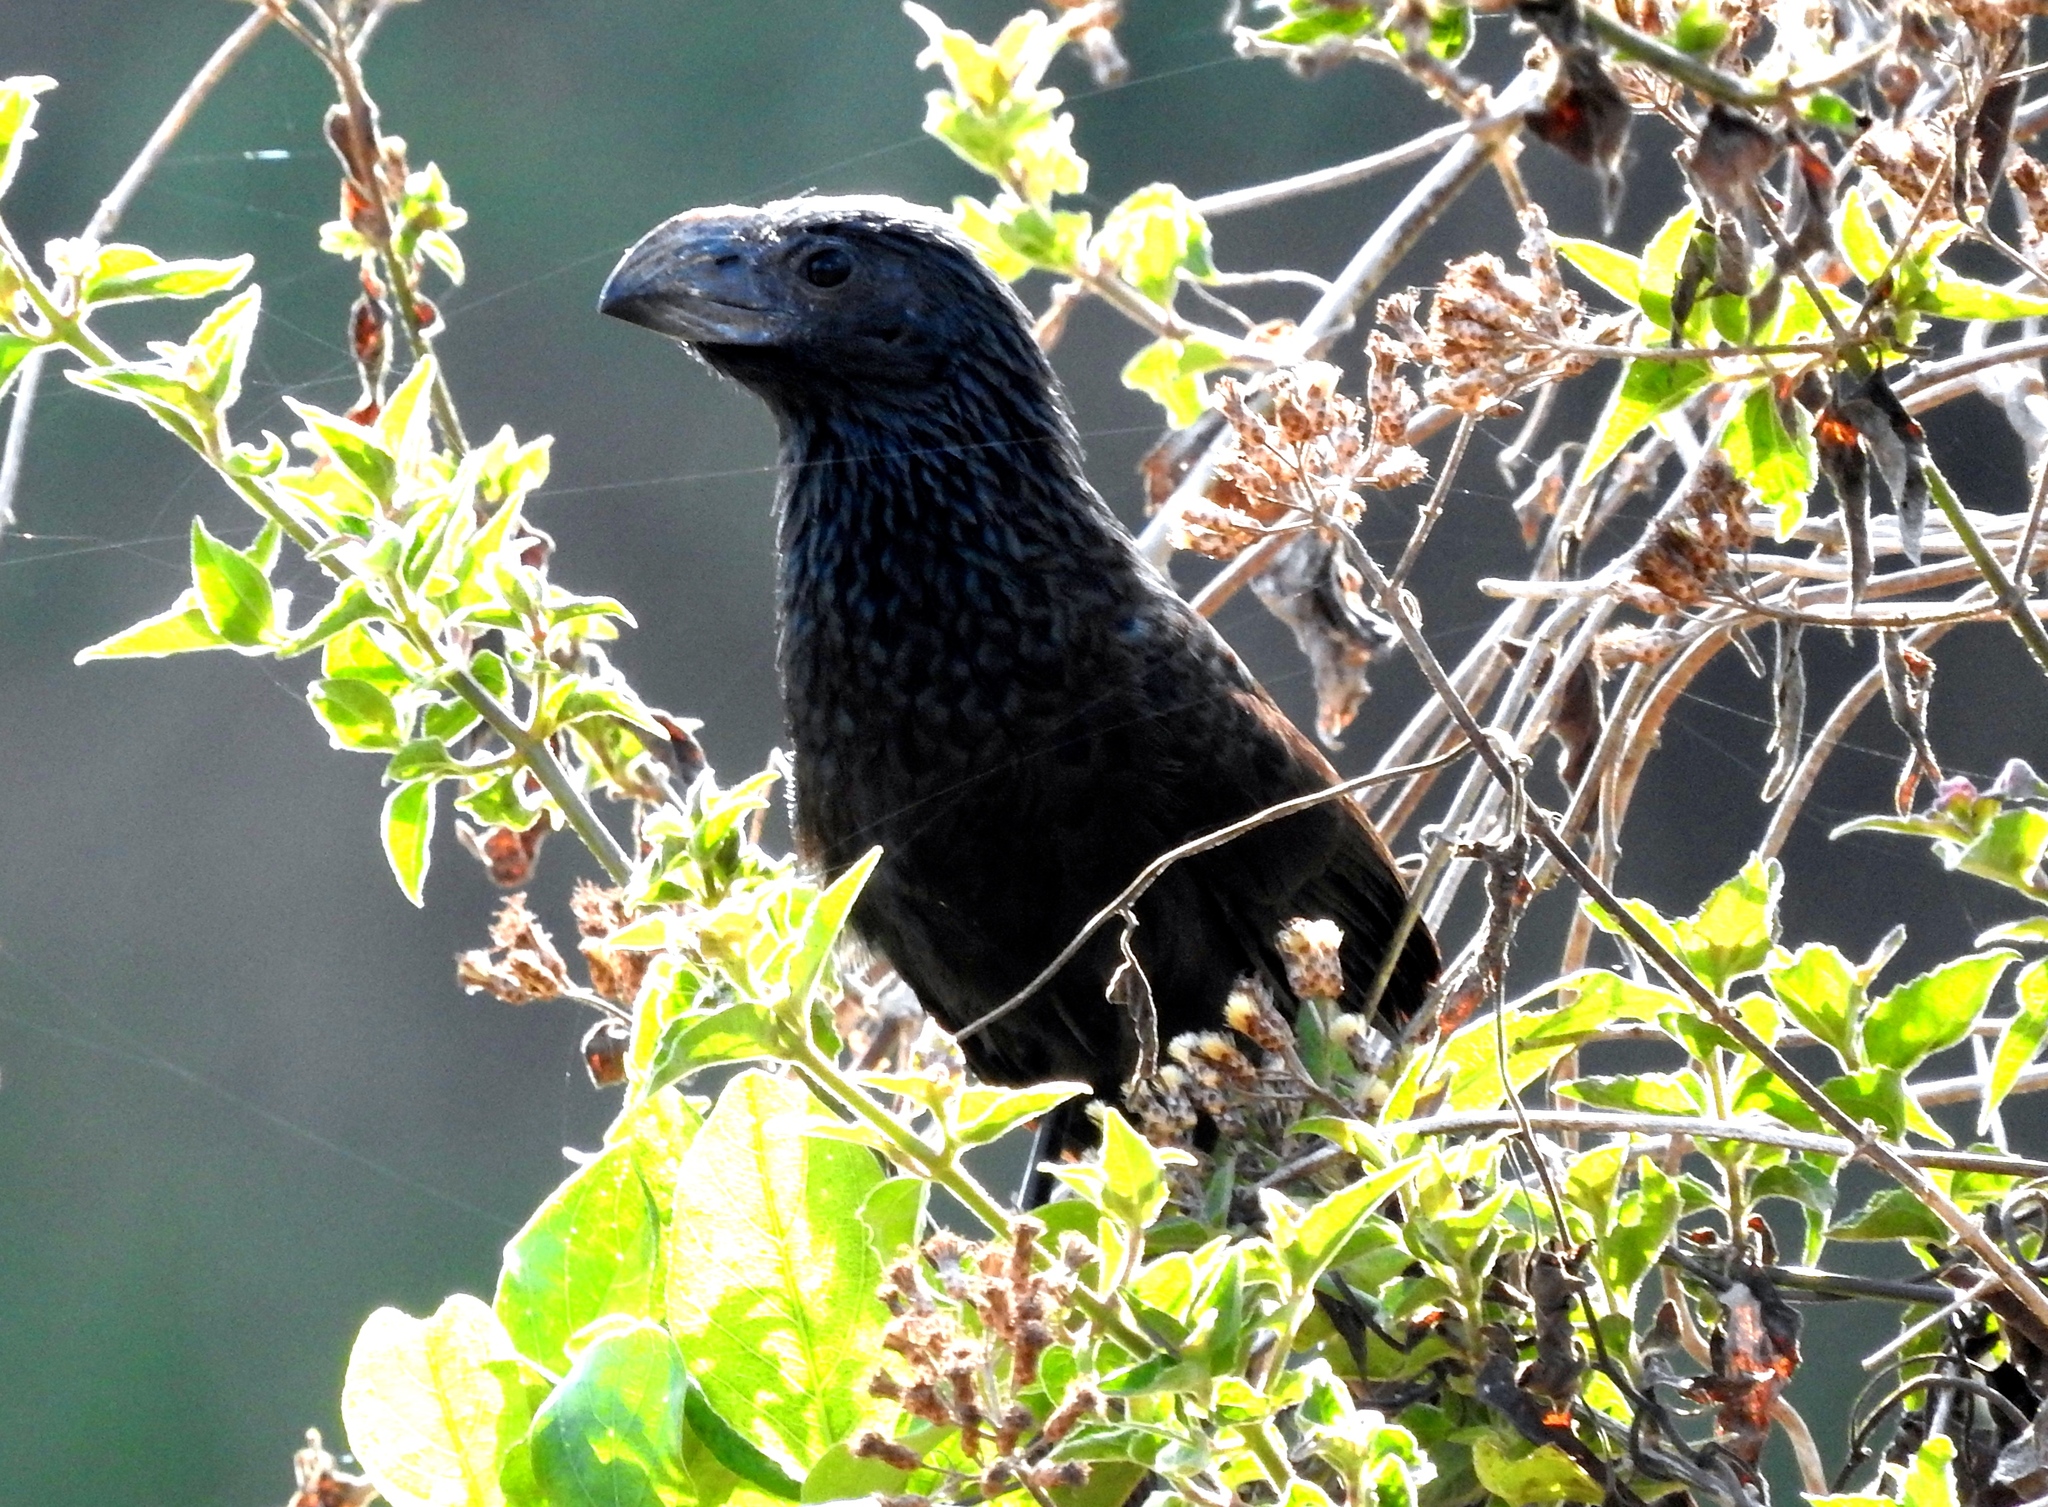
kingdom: Animalia
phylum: Chordata
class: Aves
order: Cuculiformes
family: Cuculidae
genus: Crotophaga
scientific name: Crotophaga sulcirostris
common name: Groove-billed ani
